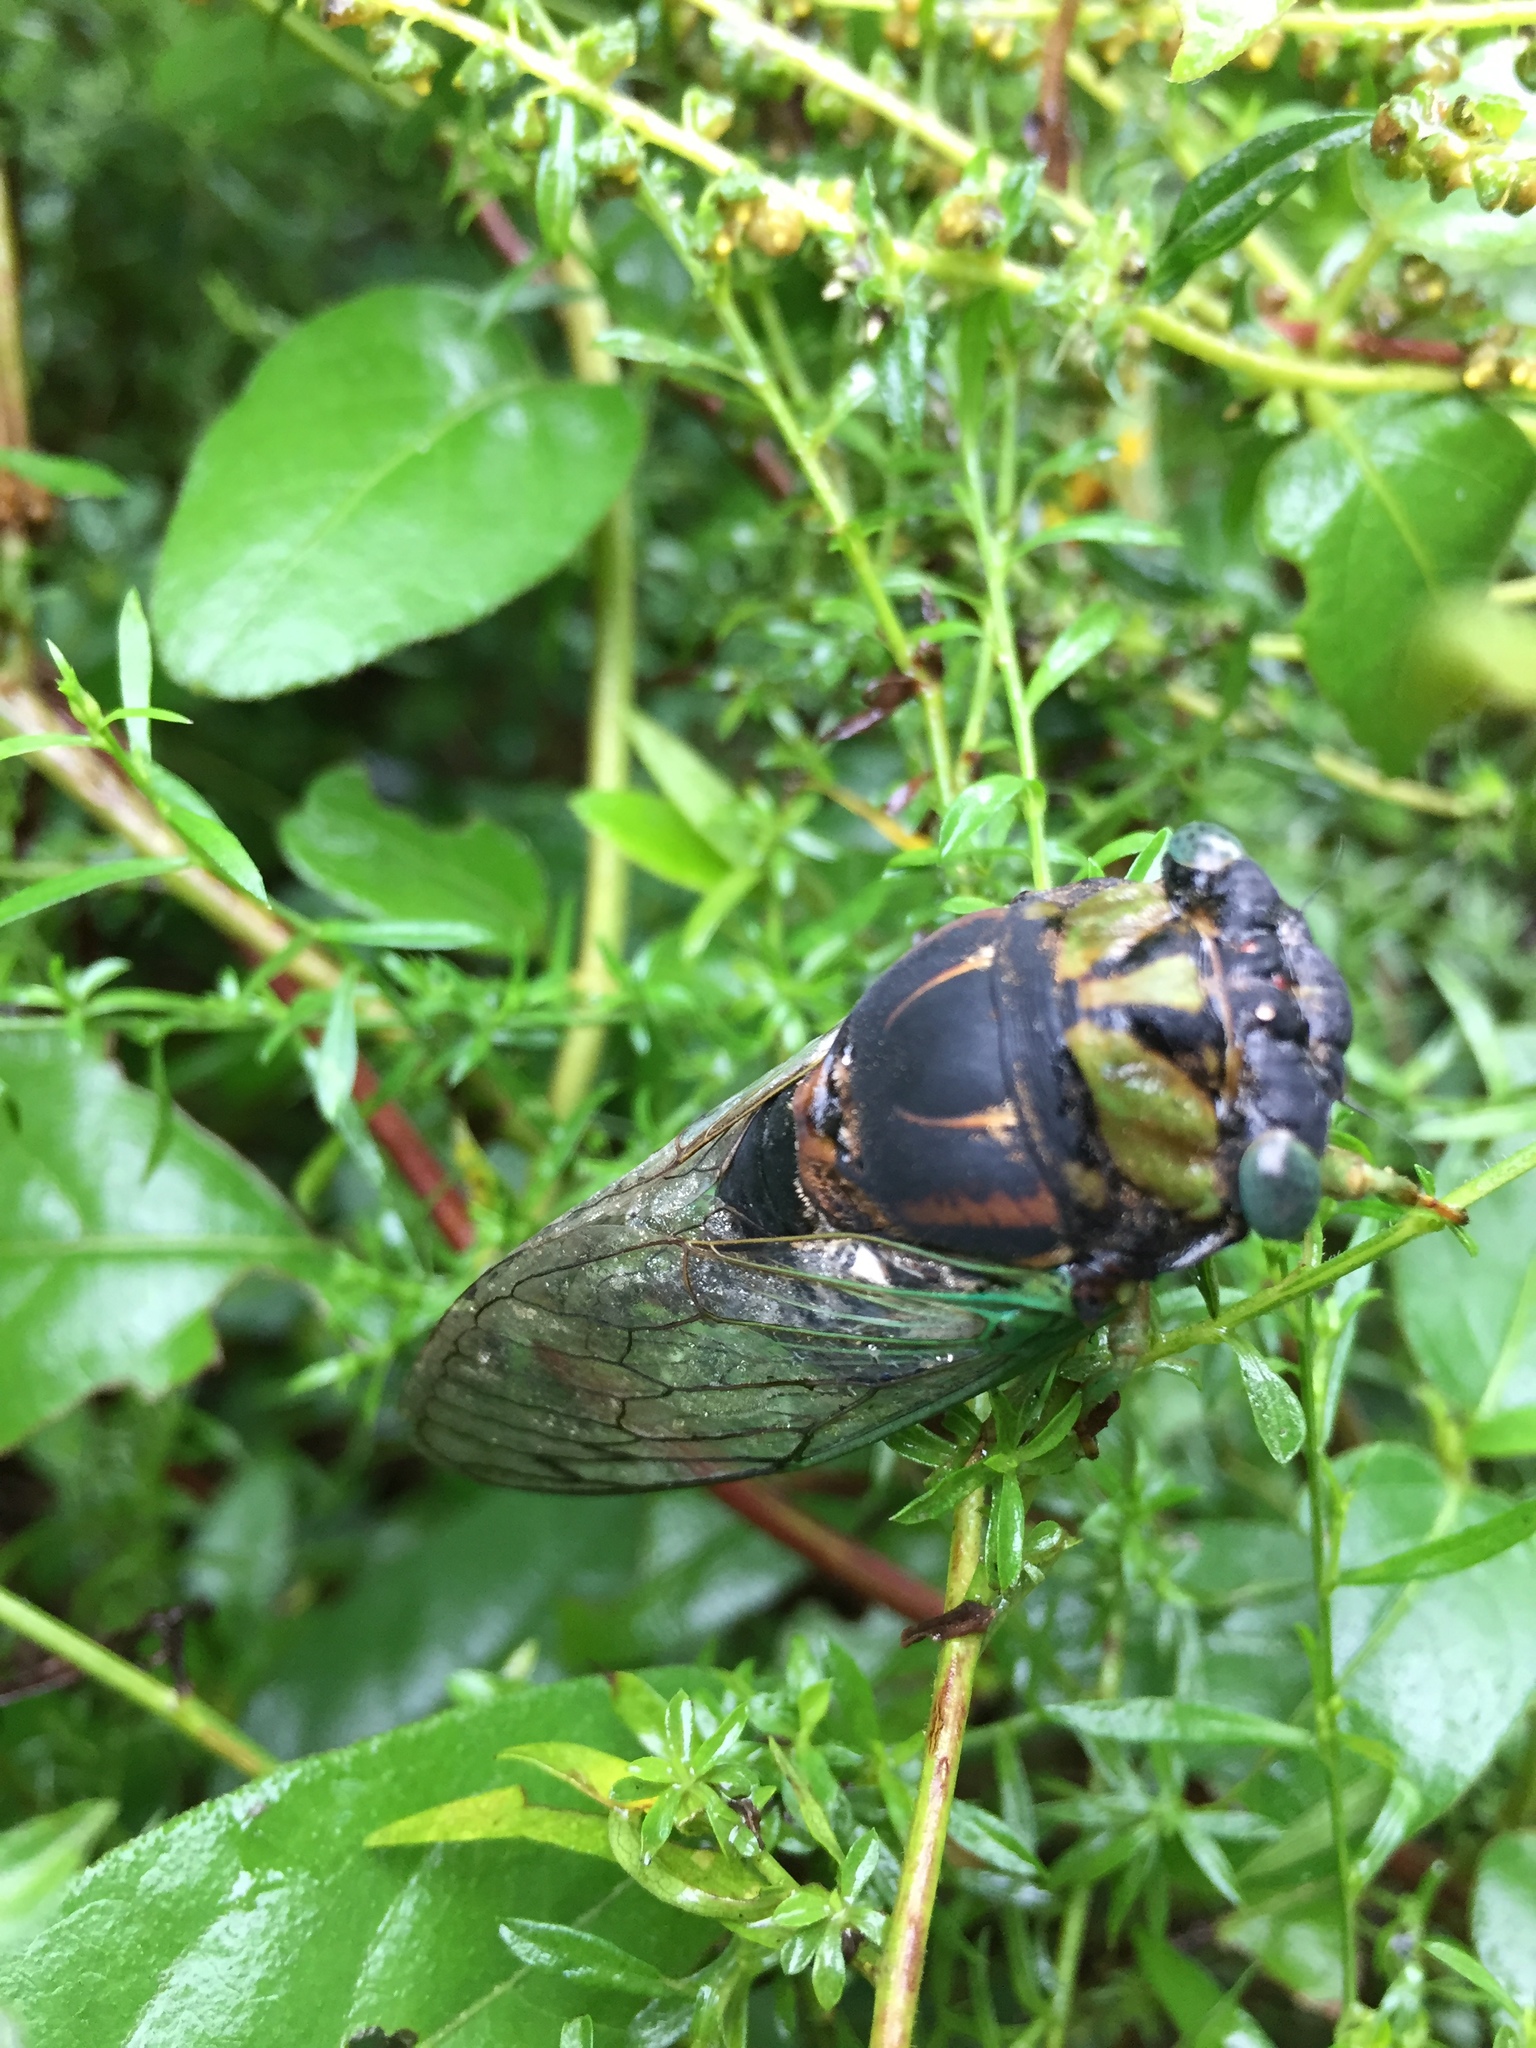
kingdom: Animalia
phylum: Arthropoda
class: Insecta
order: Hemiptera
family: Cicadidae
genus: Neotibicen
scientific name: Neotibicen tibicen
